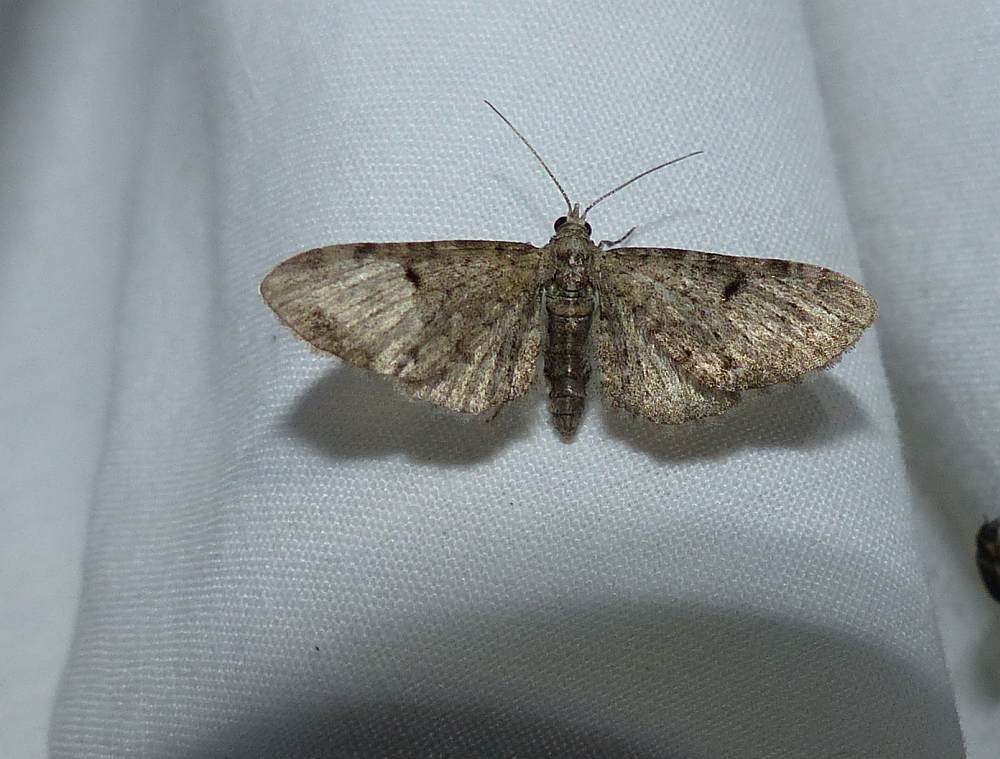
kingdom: Animalia
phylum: Arthropoda
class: Insecta
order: Lepidoptera
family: Geometridae
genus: Eupithecia
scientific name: Eupithecia miserulata
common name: Common eupithecia
